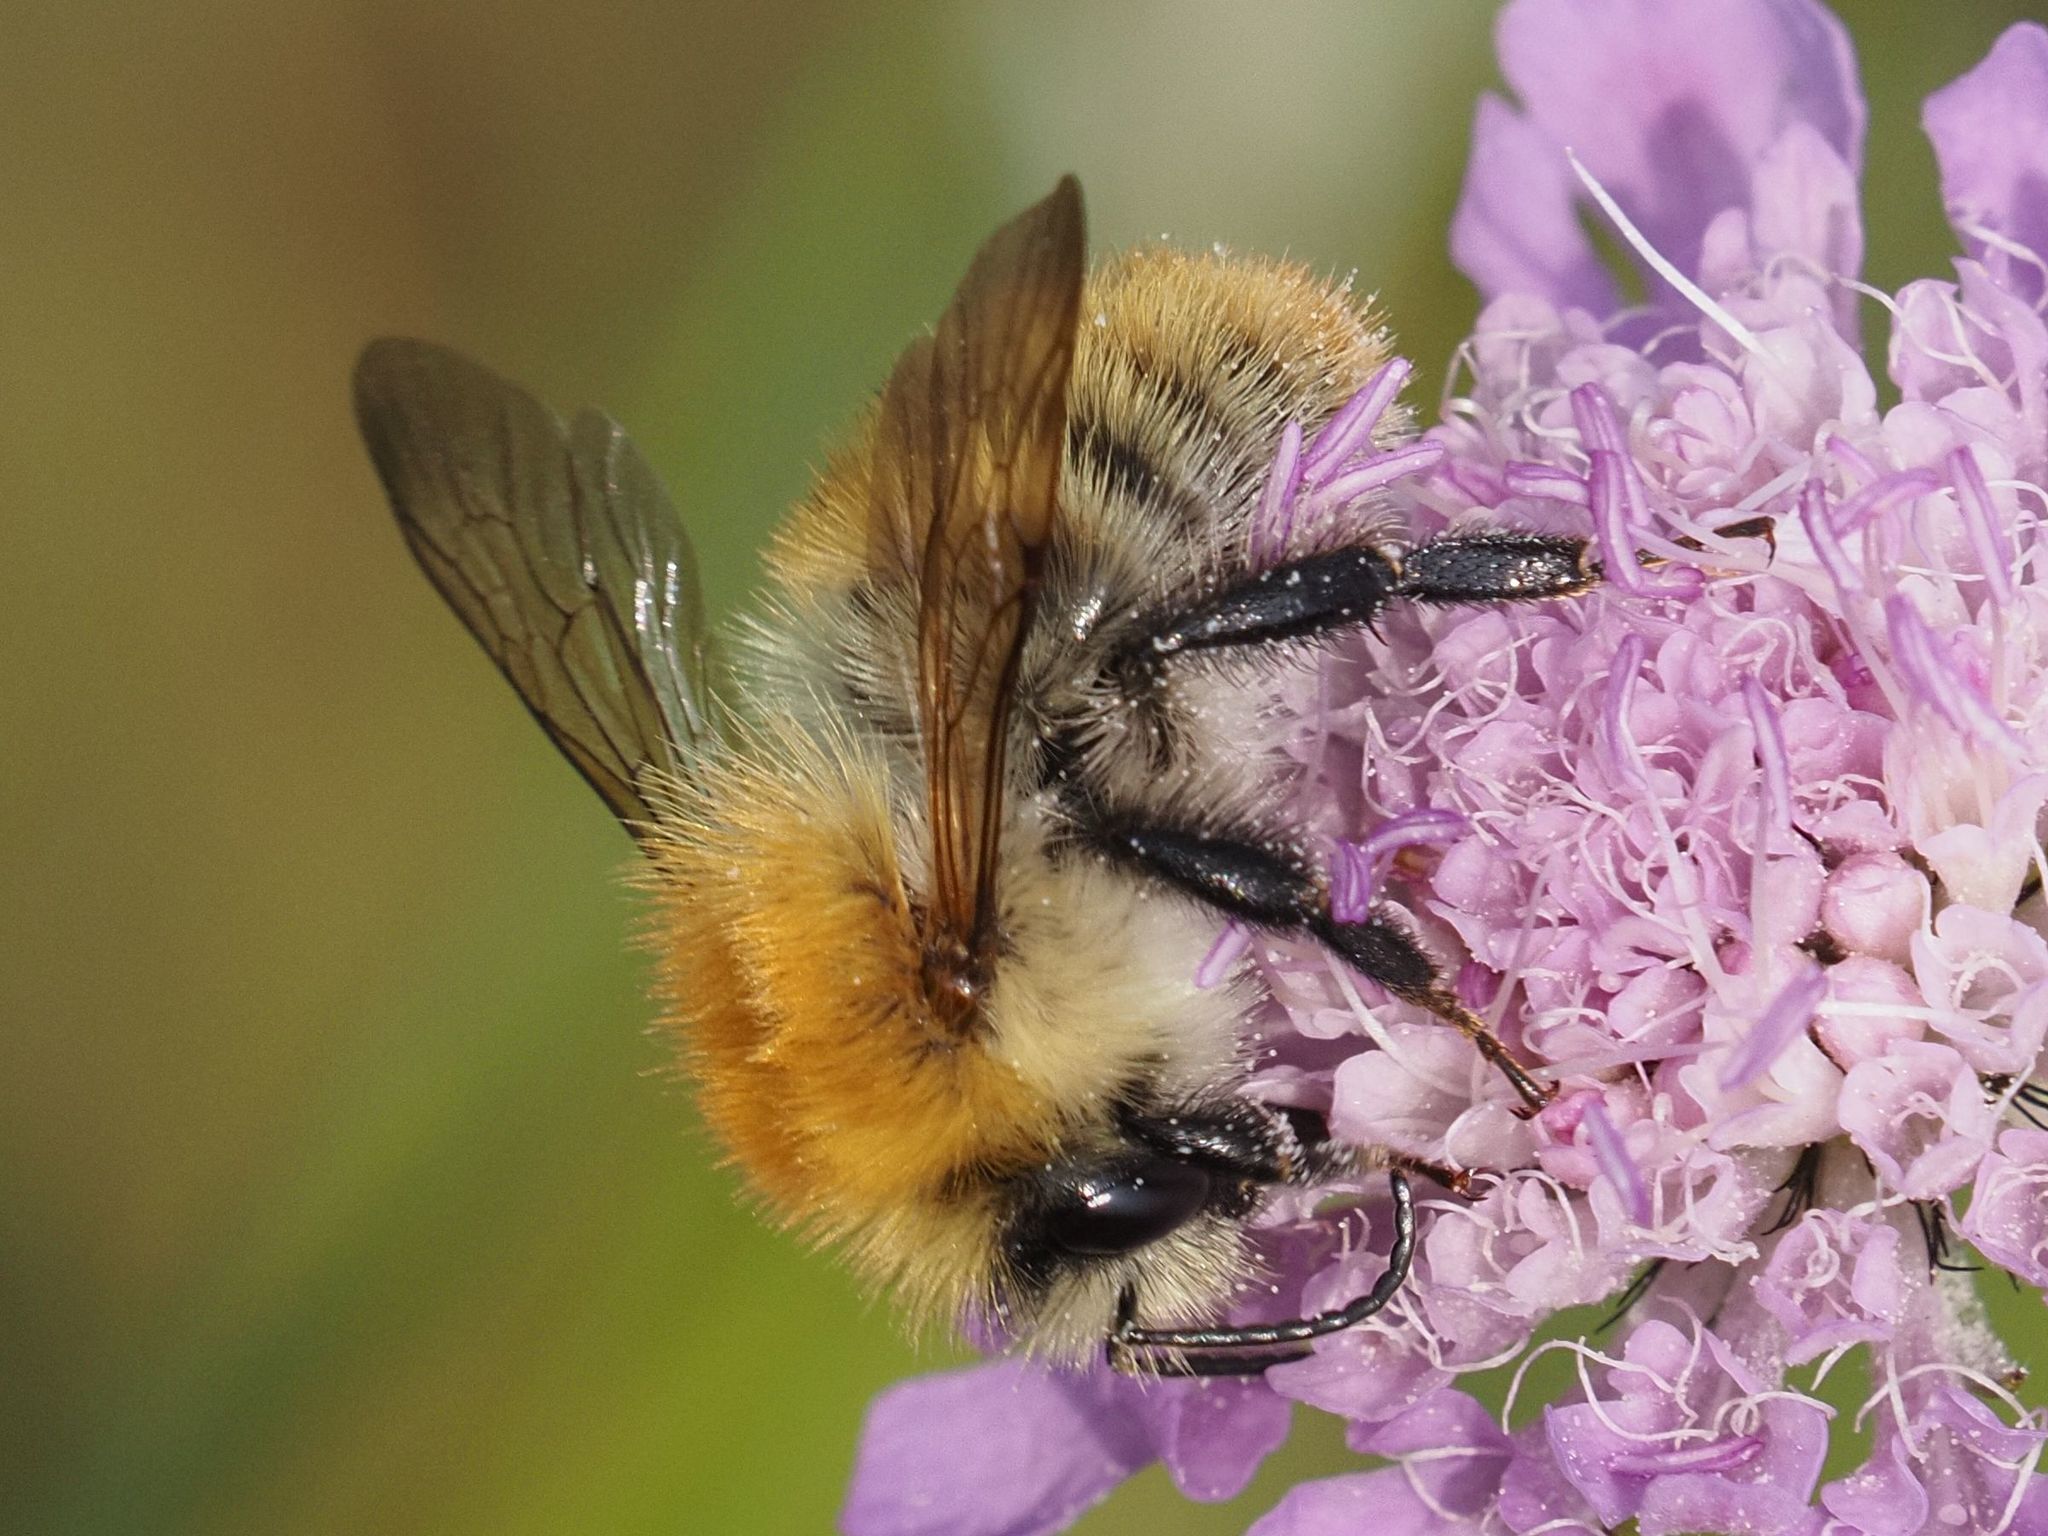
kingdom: Animalia
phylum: Arthropoda
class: Insecta
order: Hymenoptera
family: Apidae
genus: Bombus
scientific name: Bombus pascuorum
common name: Common carder bee
